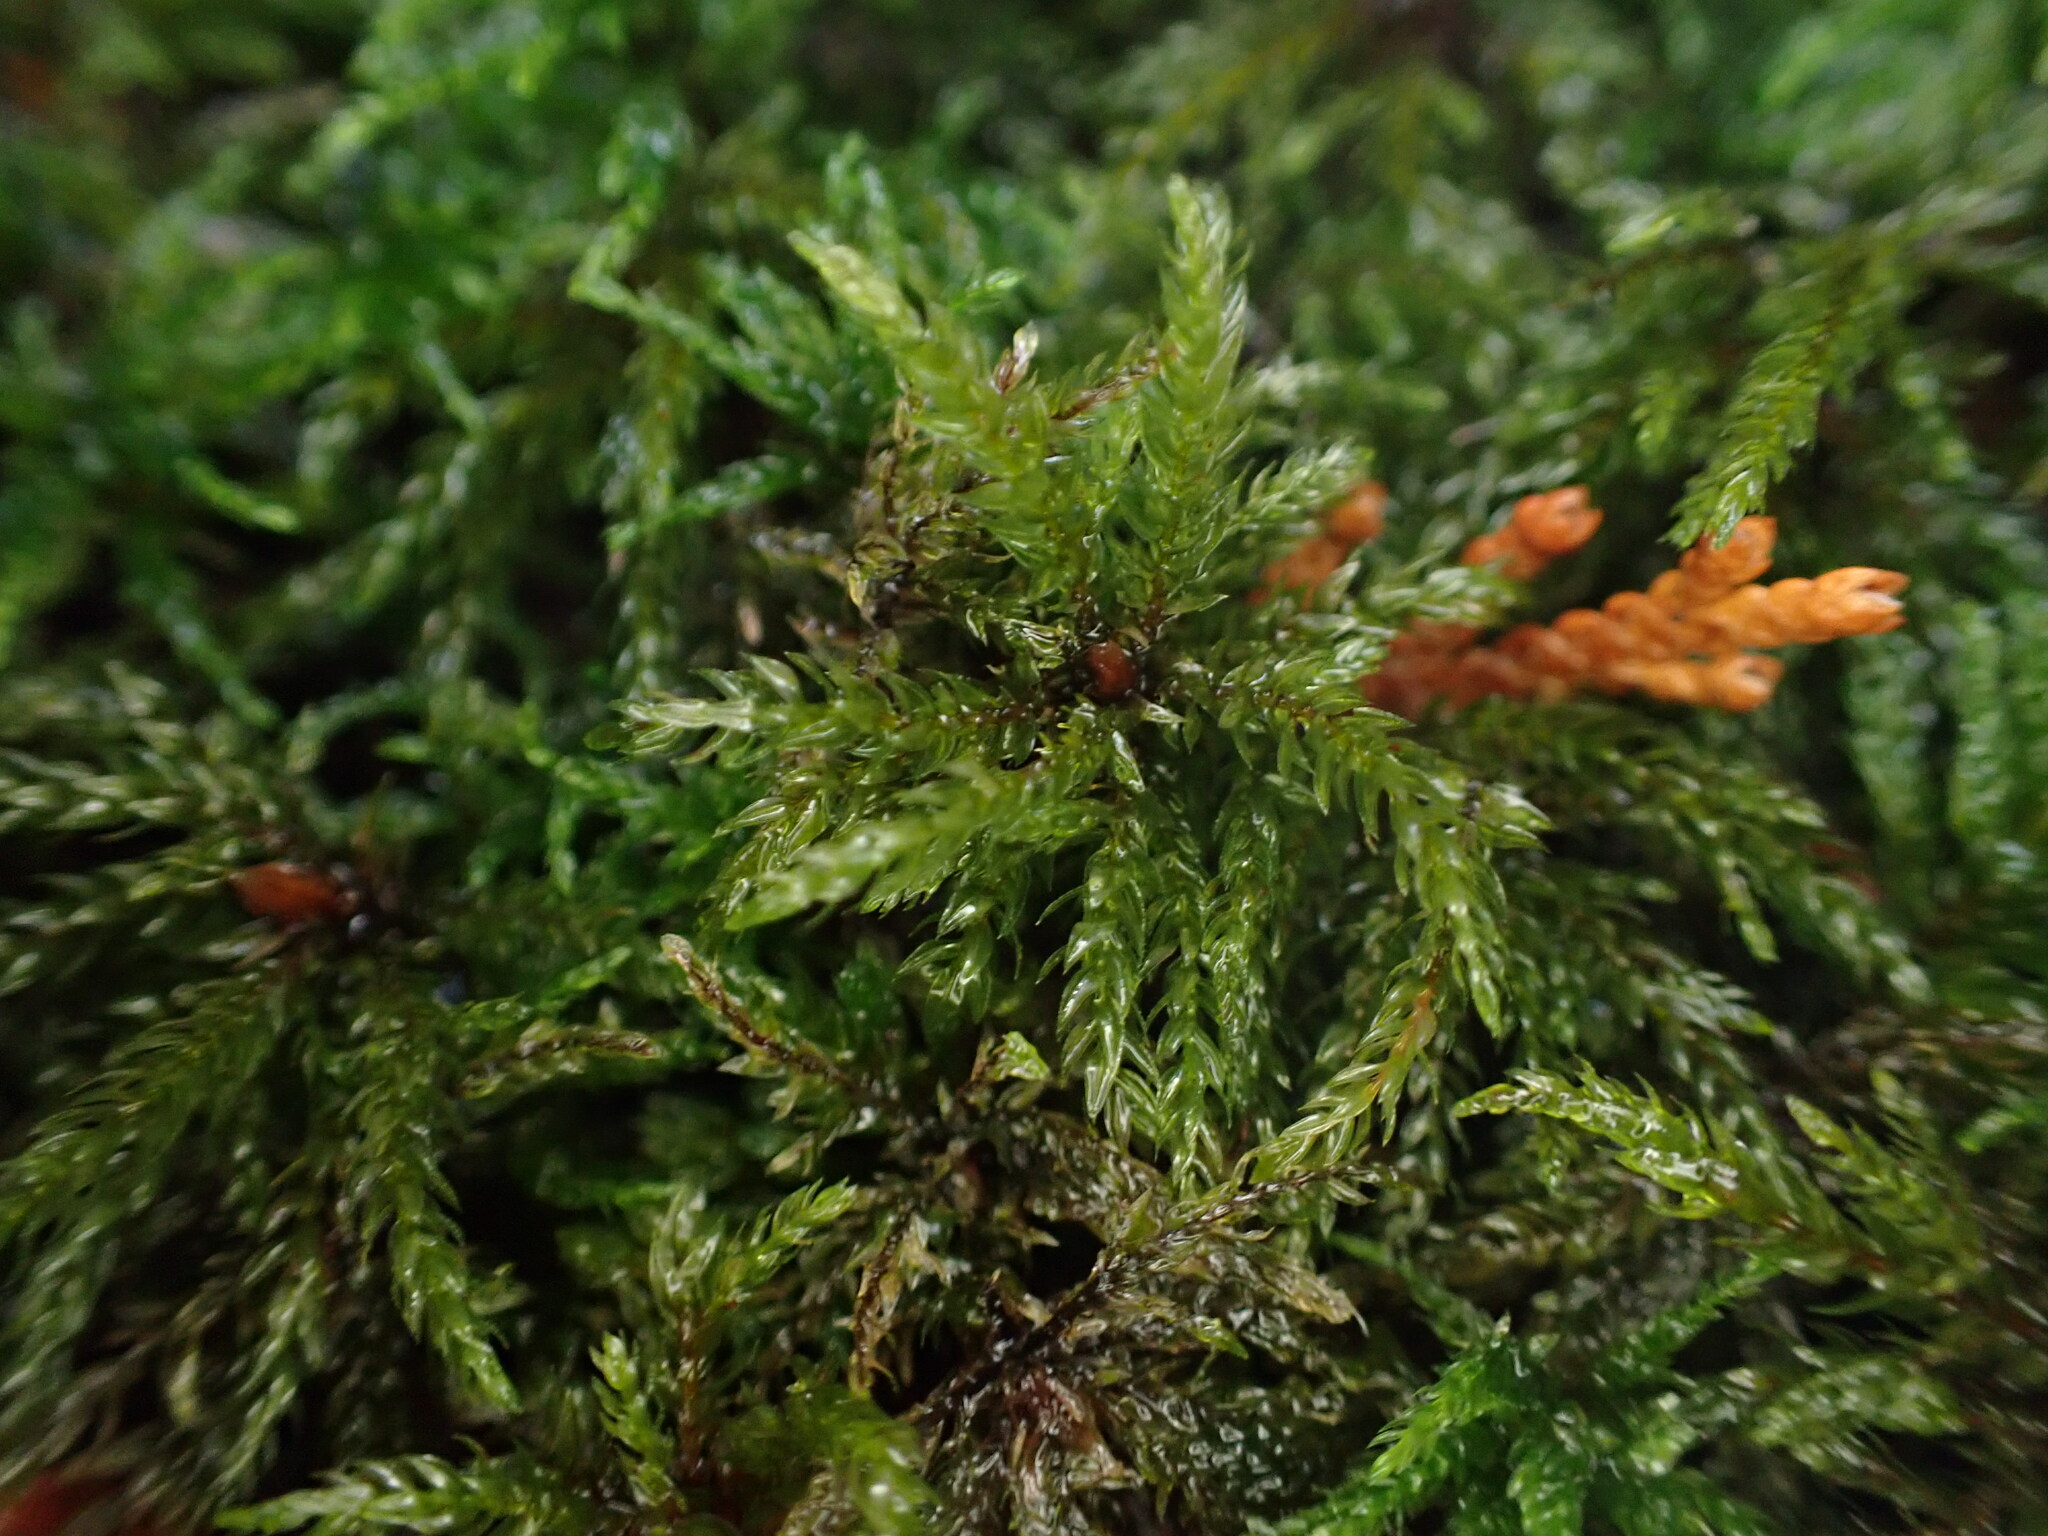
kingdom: Plantae
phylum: Bryophyta
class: Bryopsida
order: Bryales
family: Mniaceae
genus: Leucolepis
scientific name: Leucolepis acanthoneura
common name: Leucolepis umbrella moss
